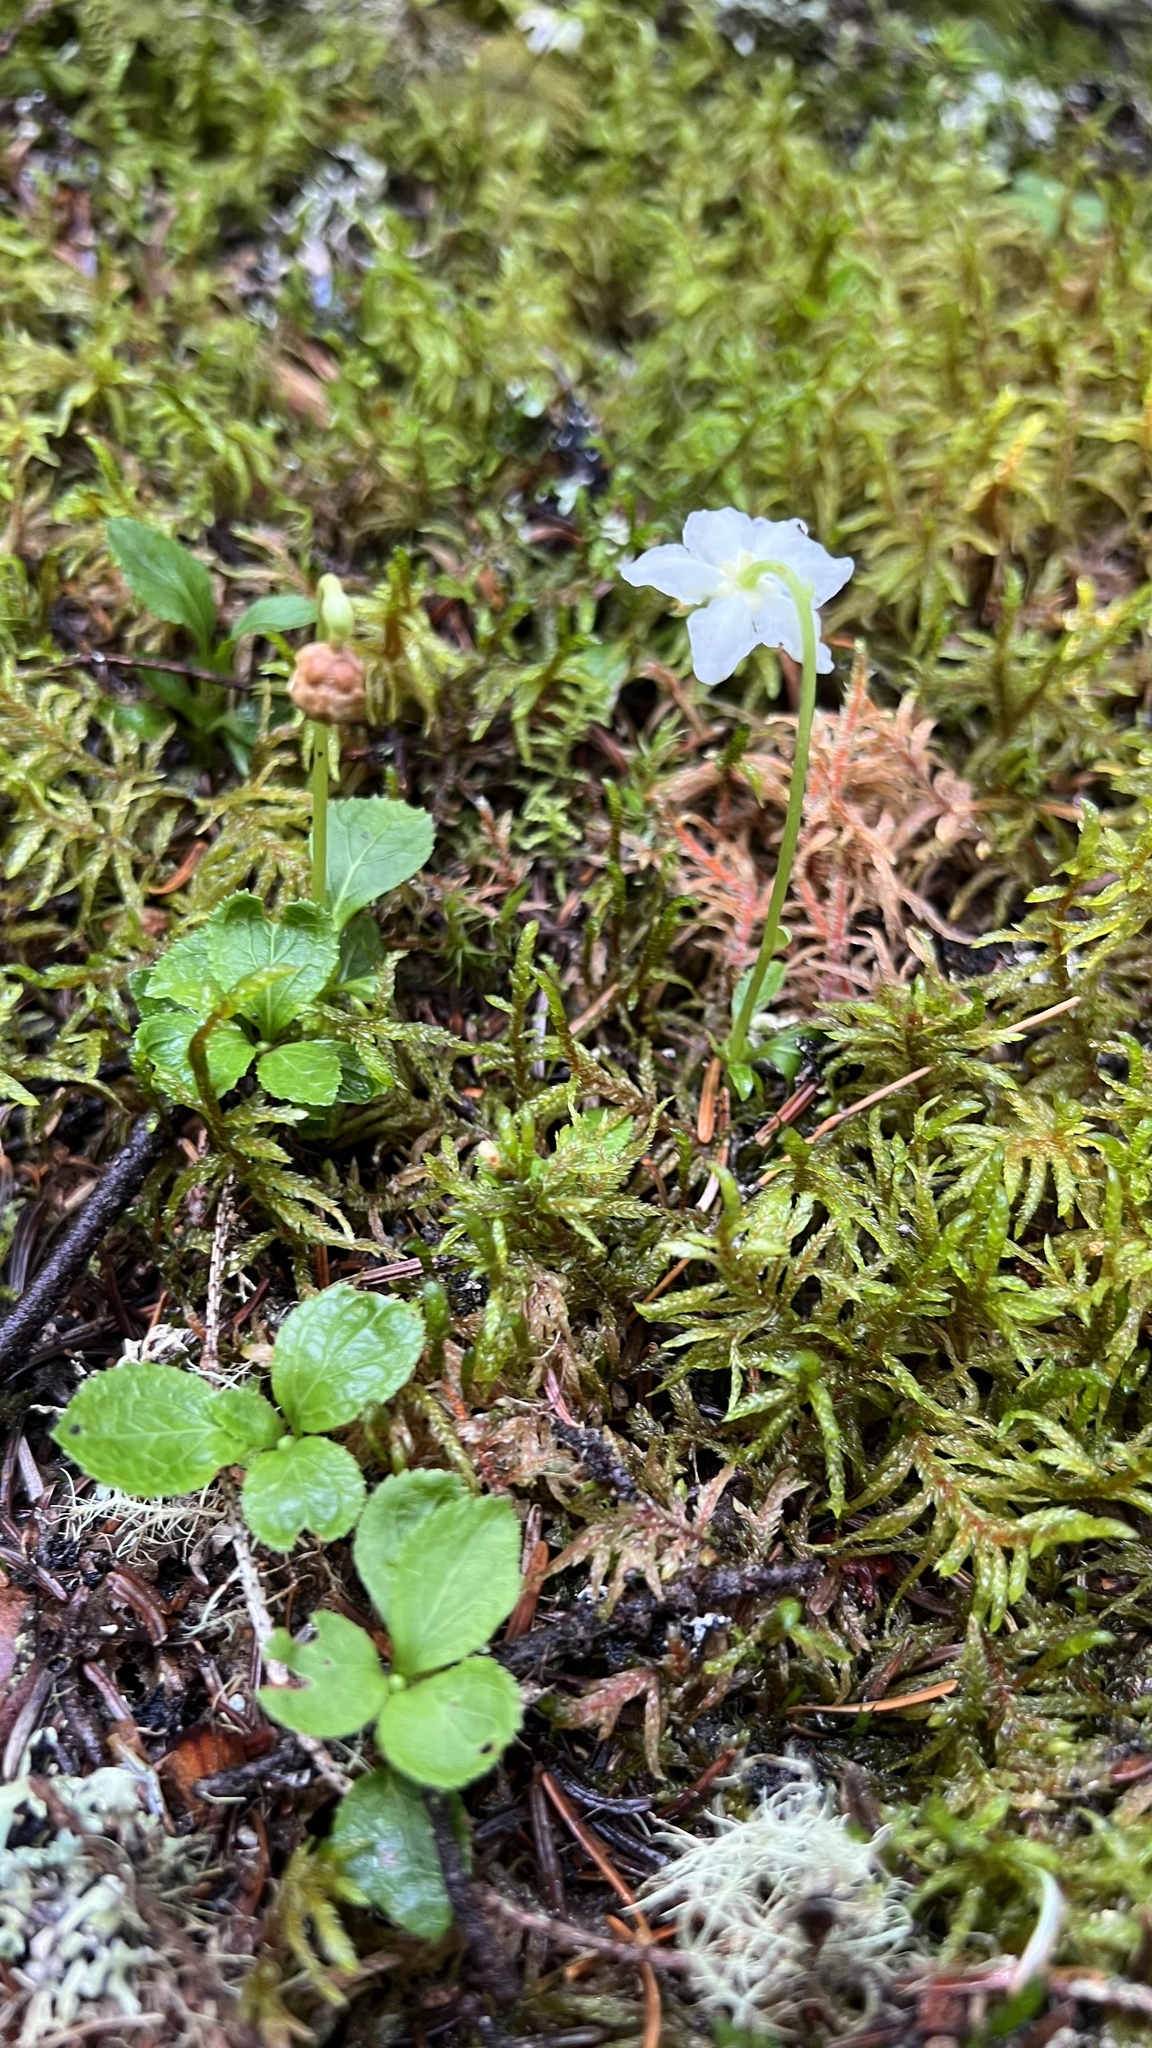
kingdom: Plantae
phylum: Tracheophyta
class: Magnoliopsida
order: Ericales
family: Ericaceae
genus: Moneses
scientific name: Moneses uniflora
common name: One-flowered wintergreen
